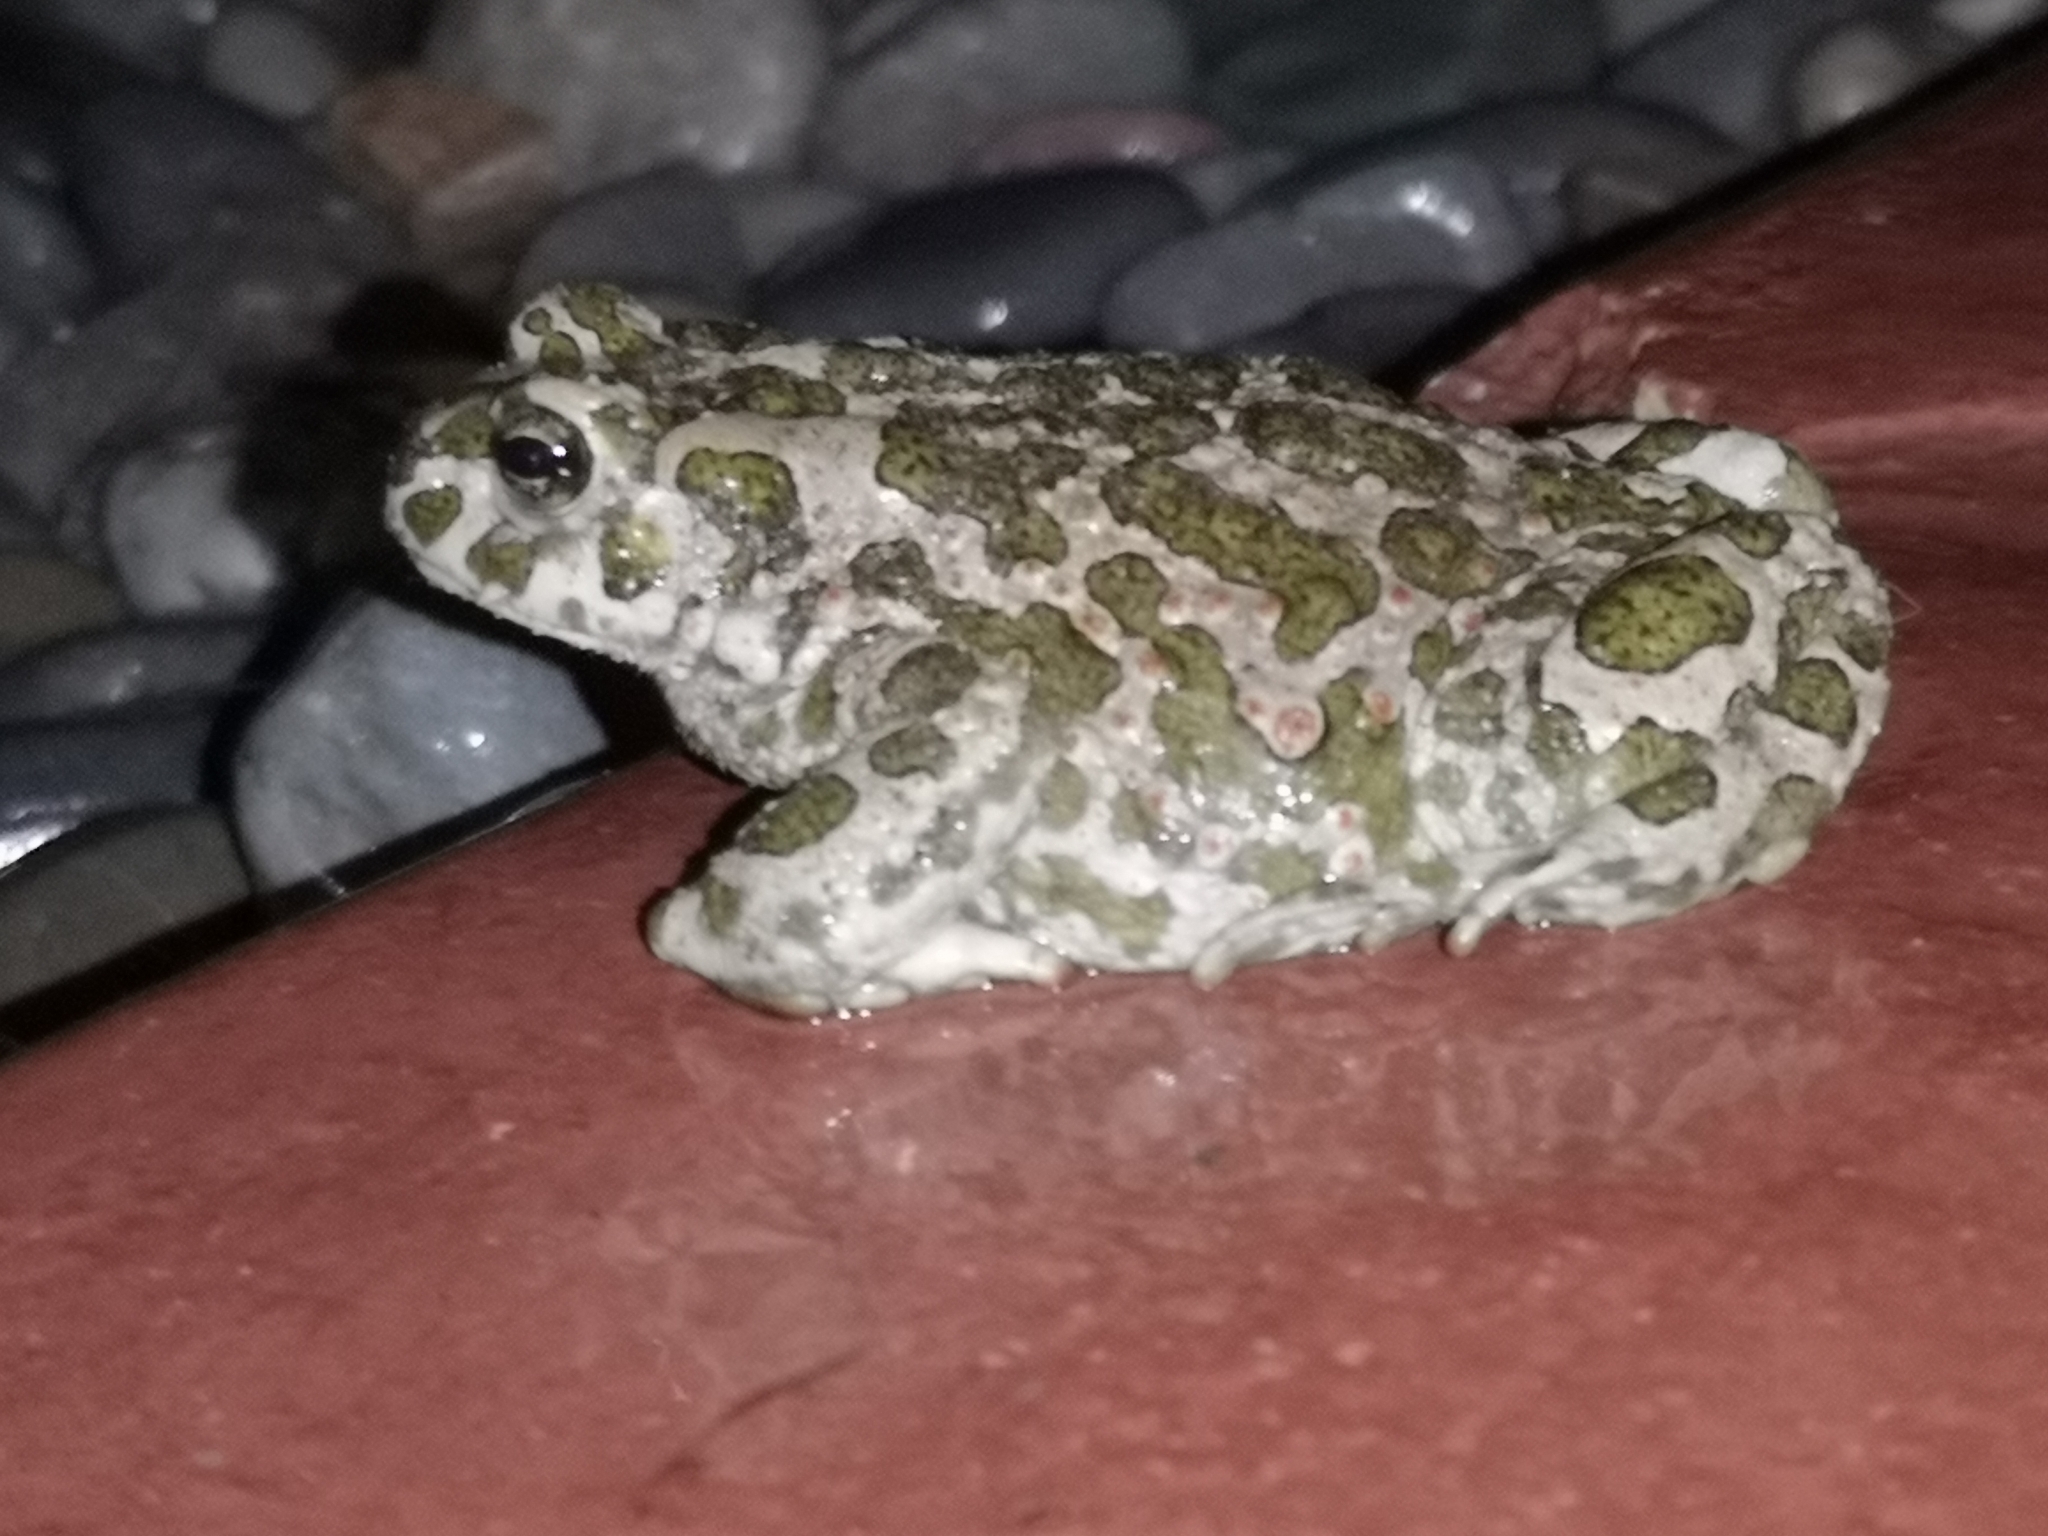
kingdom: Animalia
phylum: Chordata
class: Amphibia
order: Anura
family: Bufonidae
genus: Bufotes
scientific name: Bufotes viridis
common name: European green toad
